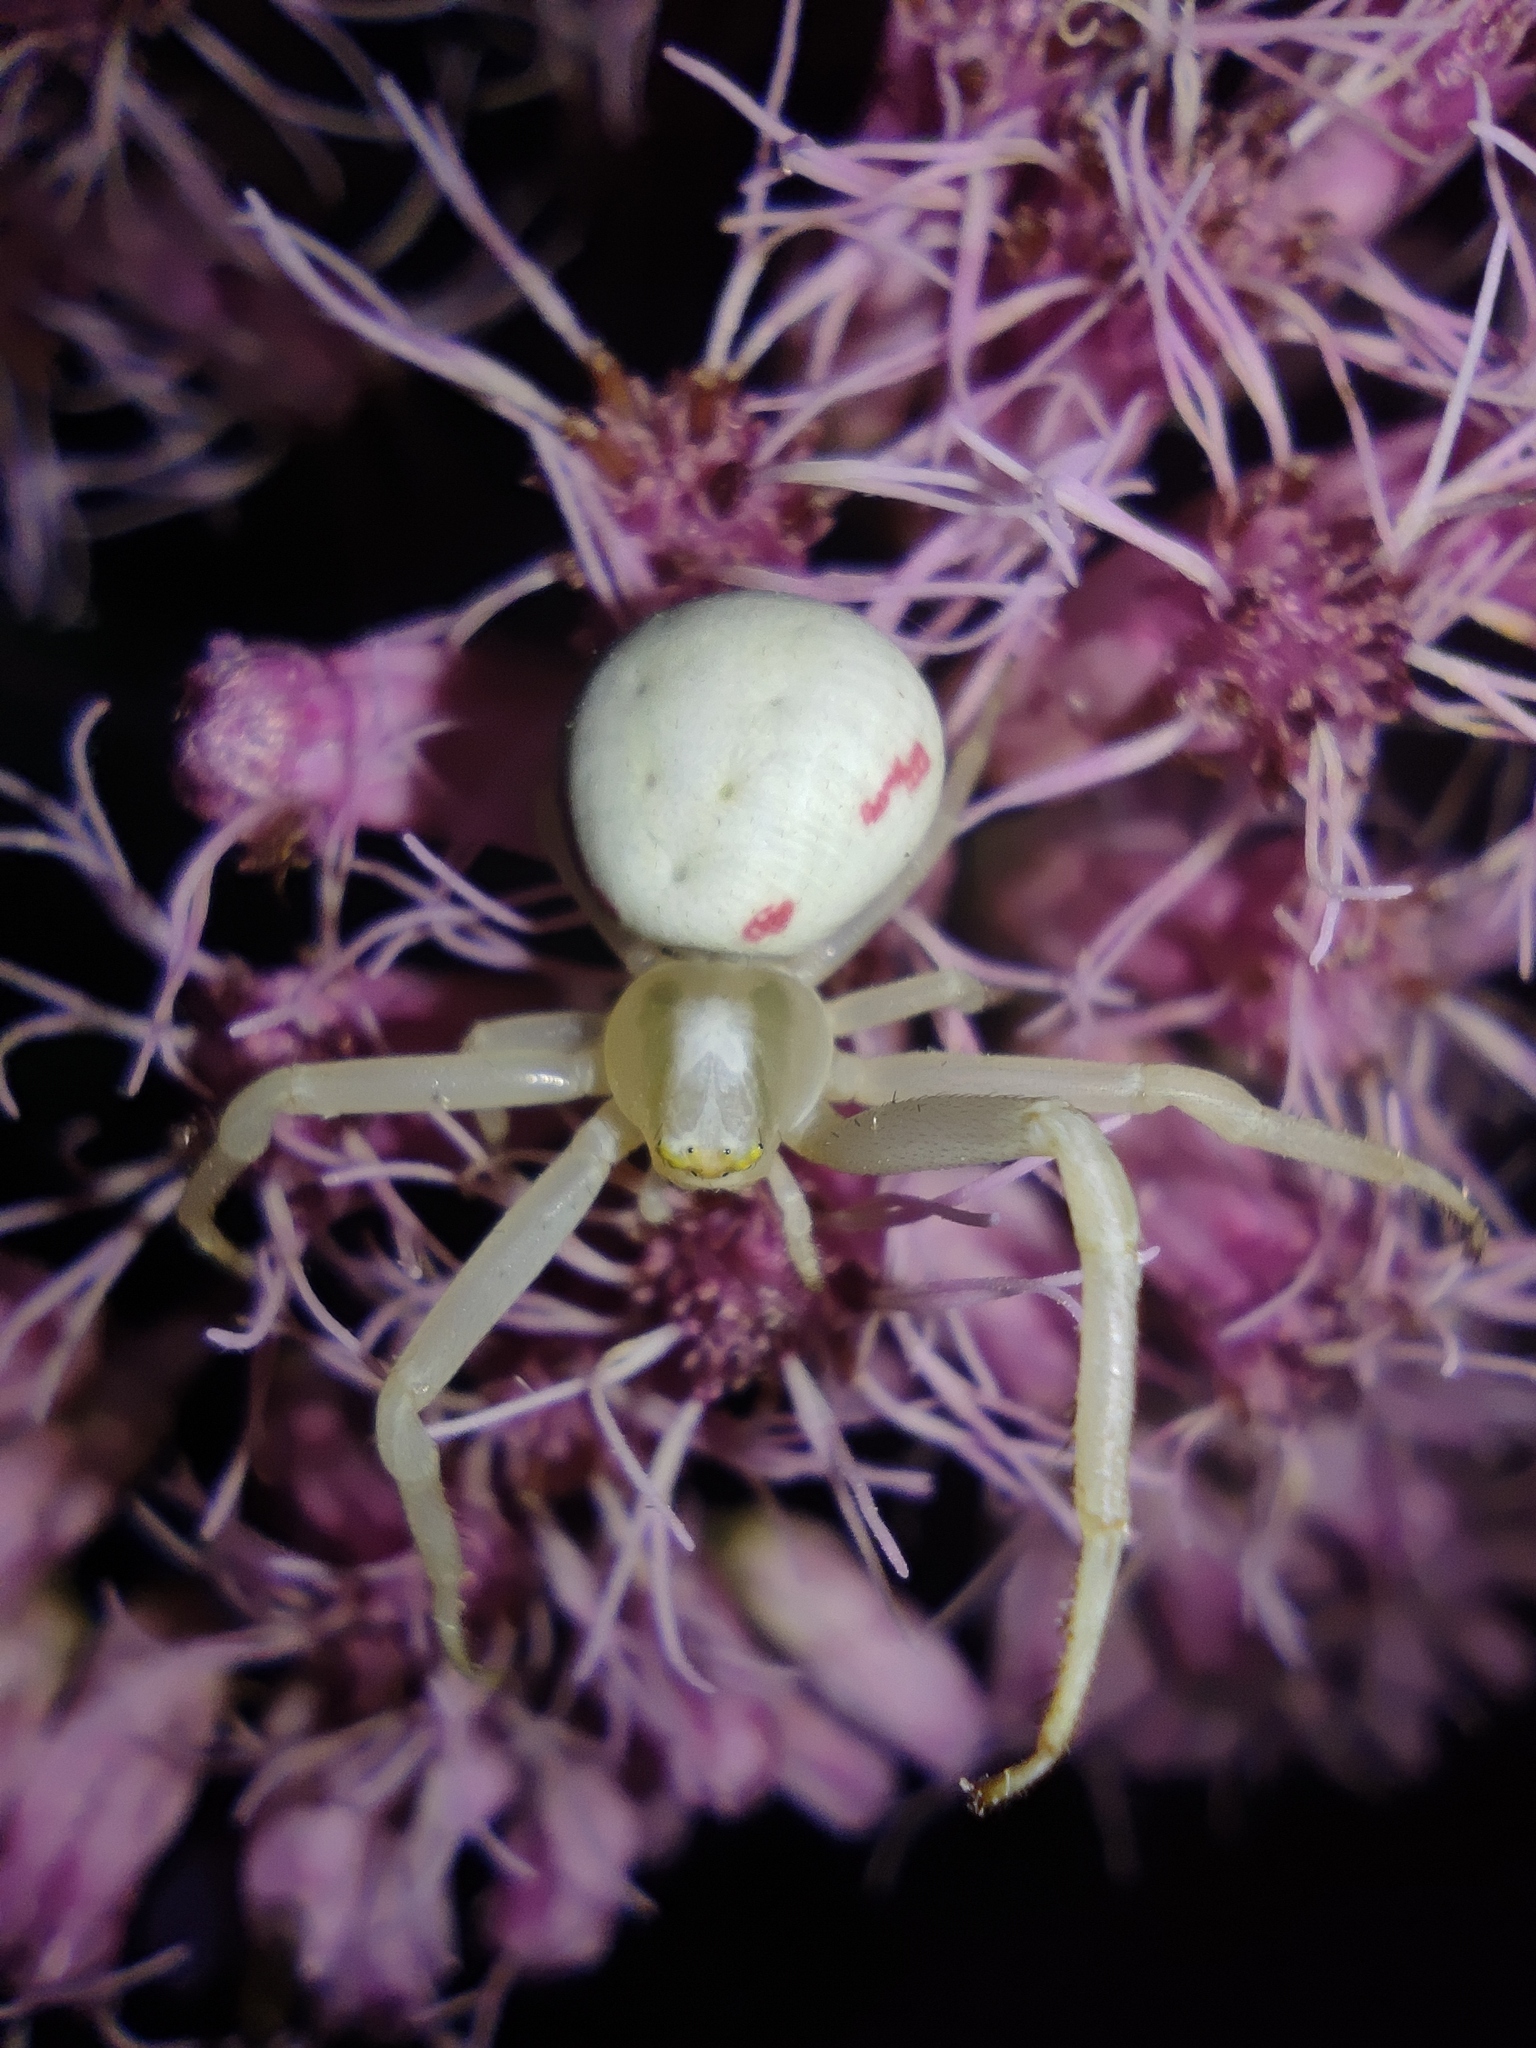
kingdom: Animalia
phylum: Arthropoda
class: Arachnida
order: Araneae
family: Thomisidae
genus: Misumena
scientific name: Misumena vatia
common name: Goldenrod crab spider
